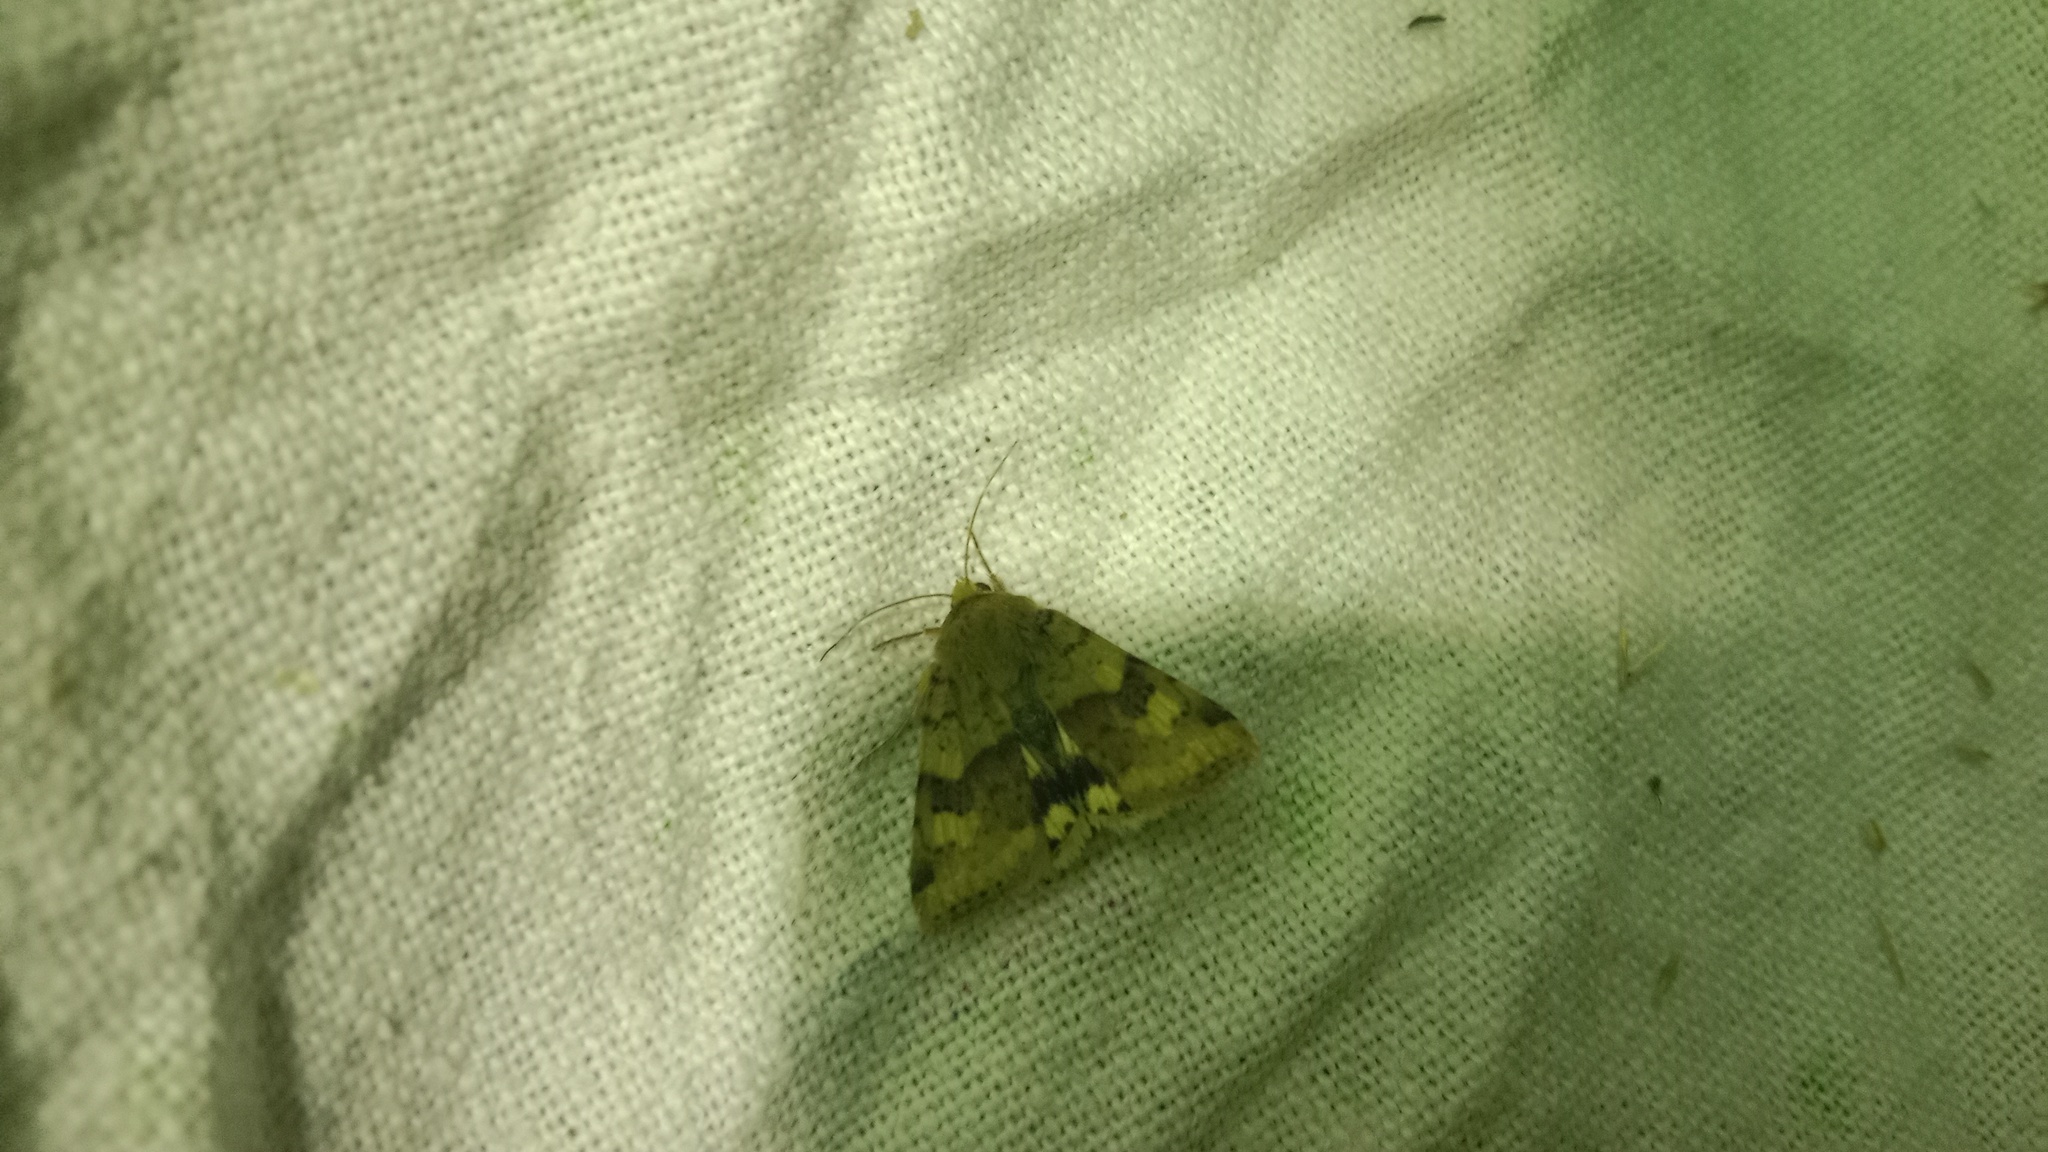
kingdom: Animalia
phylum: Arthropoda
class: Insecta
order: Lepidoptera
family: Noctuidae
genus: Heliothis
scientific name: Heliothis viriplaca
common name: Marbled clover
